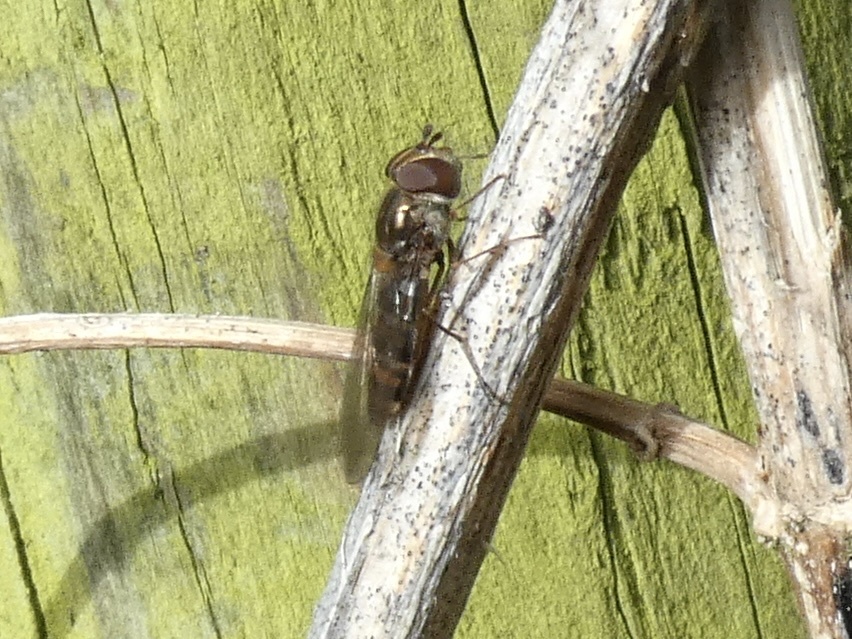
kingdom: Animalia
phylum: Arthropoda
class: Insecta
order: Diptera
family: Syrphidae
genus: Episyrphus
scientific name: Episyrphus balteatus
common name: Marmalade hoverfly
